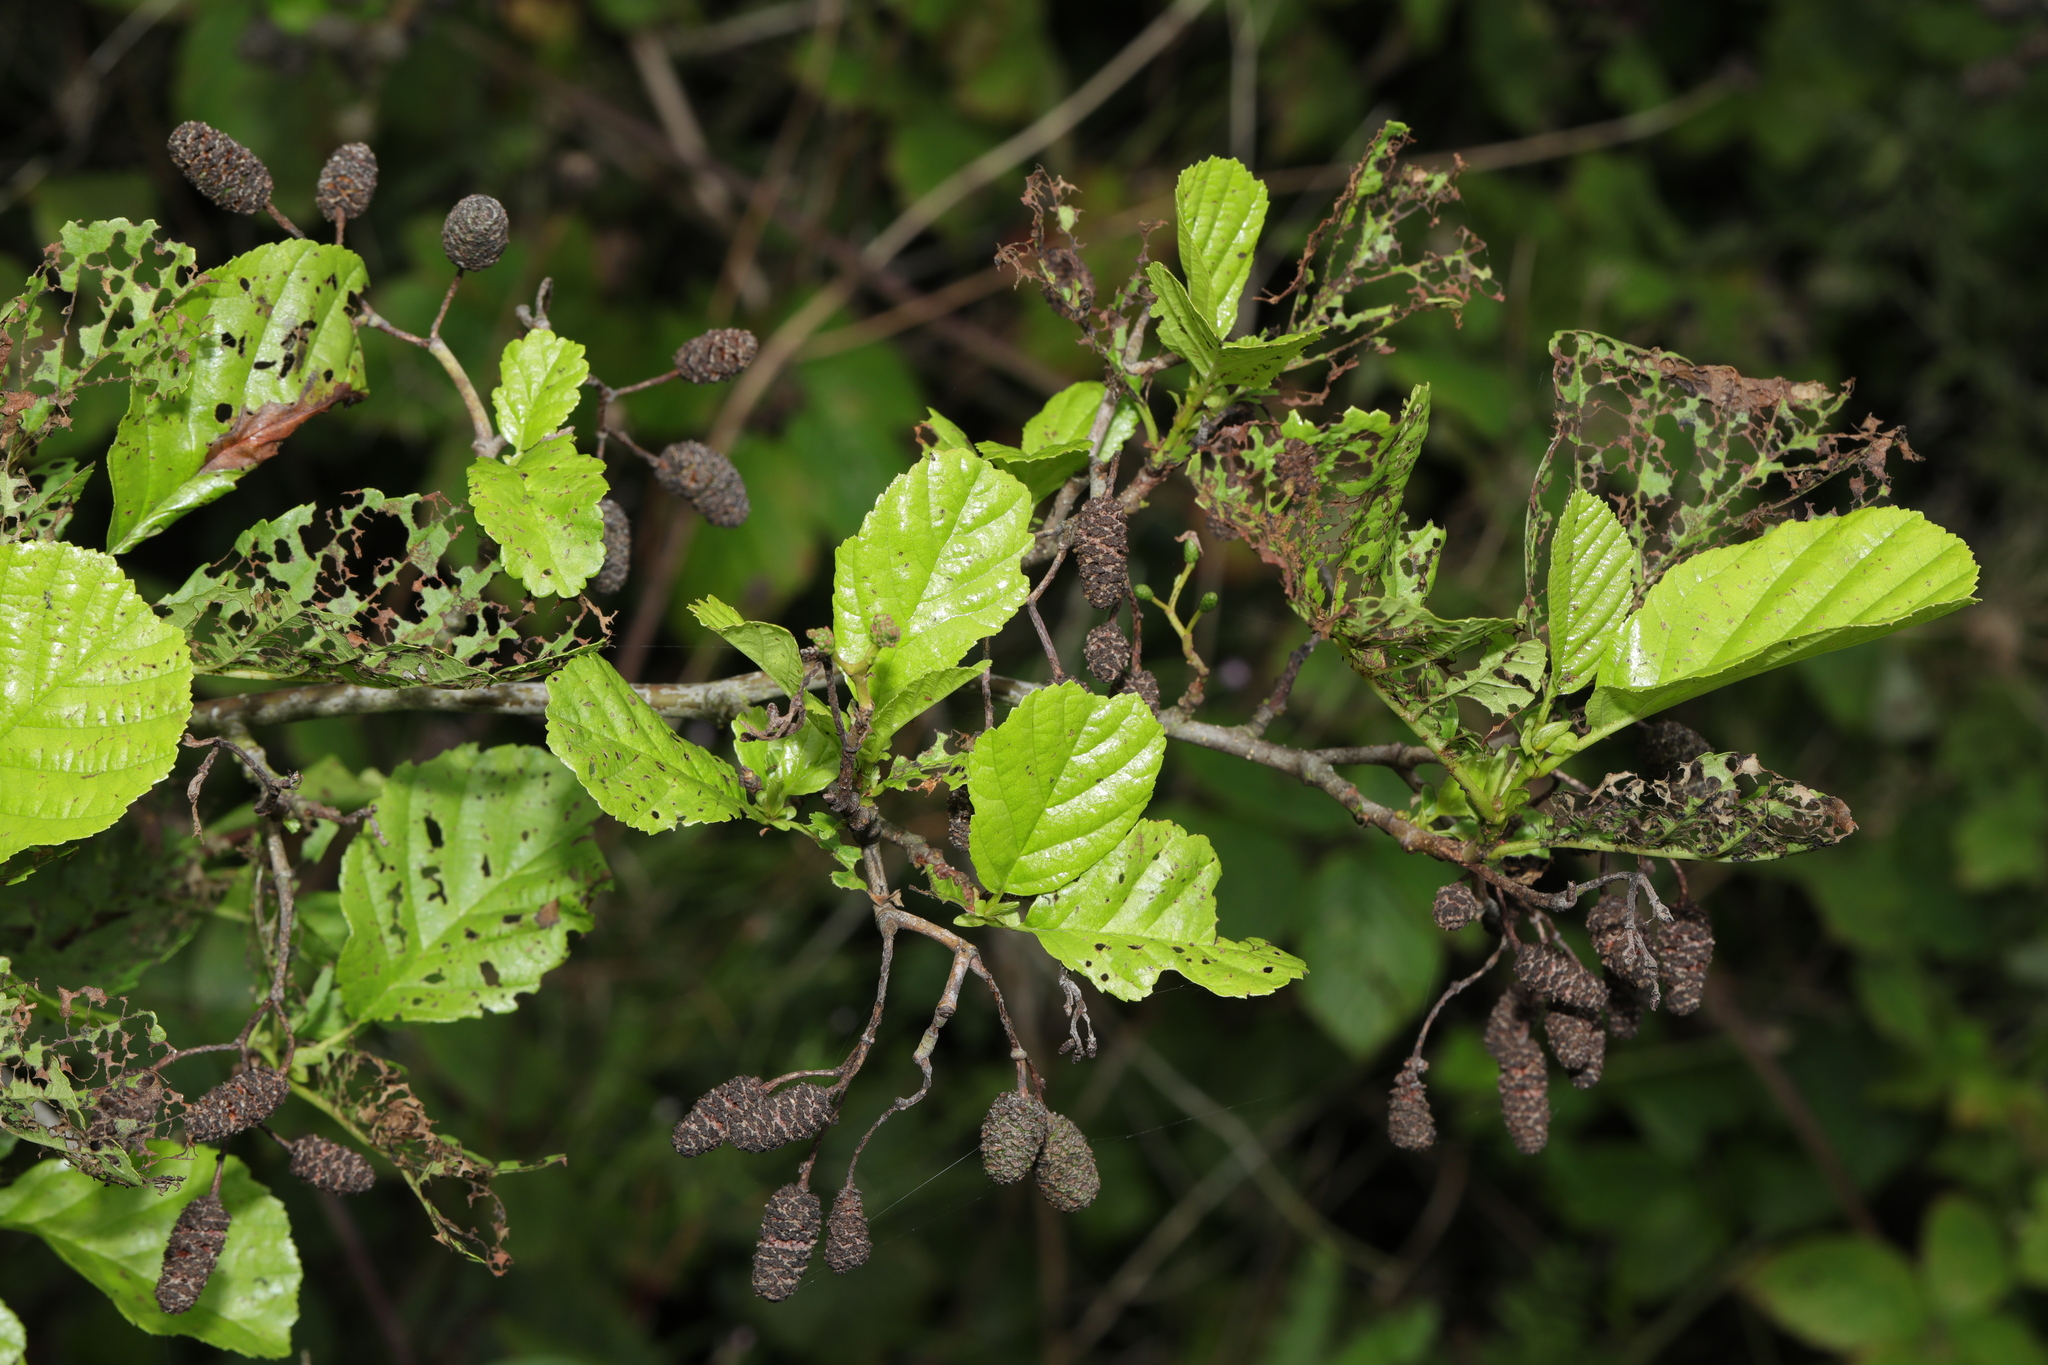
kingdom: Plantae
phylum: Tracheophyta
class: Magnoliopsida
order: Fagales
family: Betulaceae
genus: Alnus
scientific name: Alnus glutinosa
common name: Black alder
